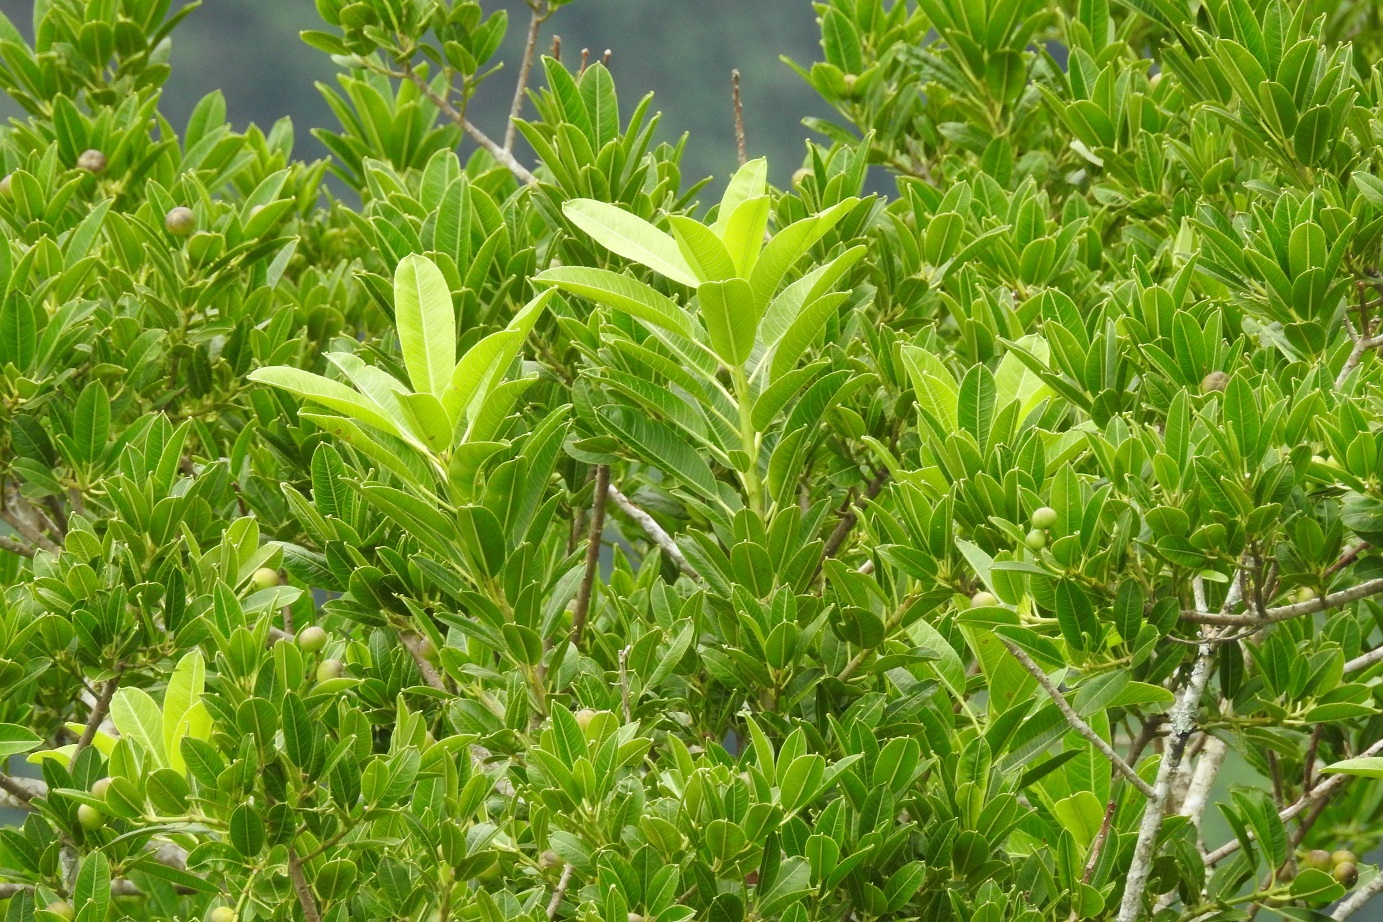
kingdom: Plantae
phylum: Tracheophyta
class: Magnoliopsida
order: Malpighiales
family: Euphorbiaceae
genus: Euphorbia
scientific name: Euphorbia lundelliana
